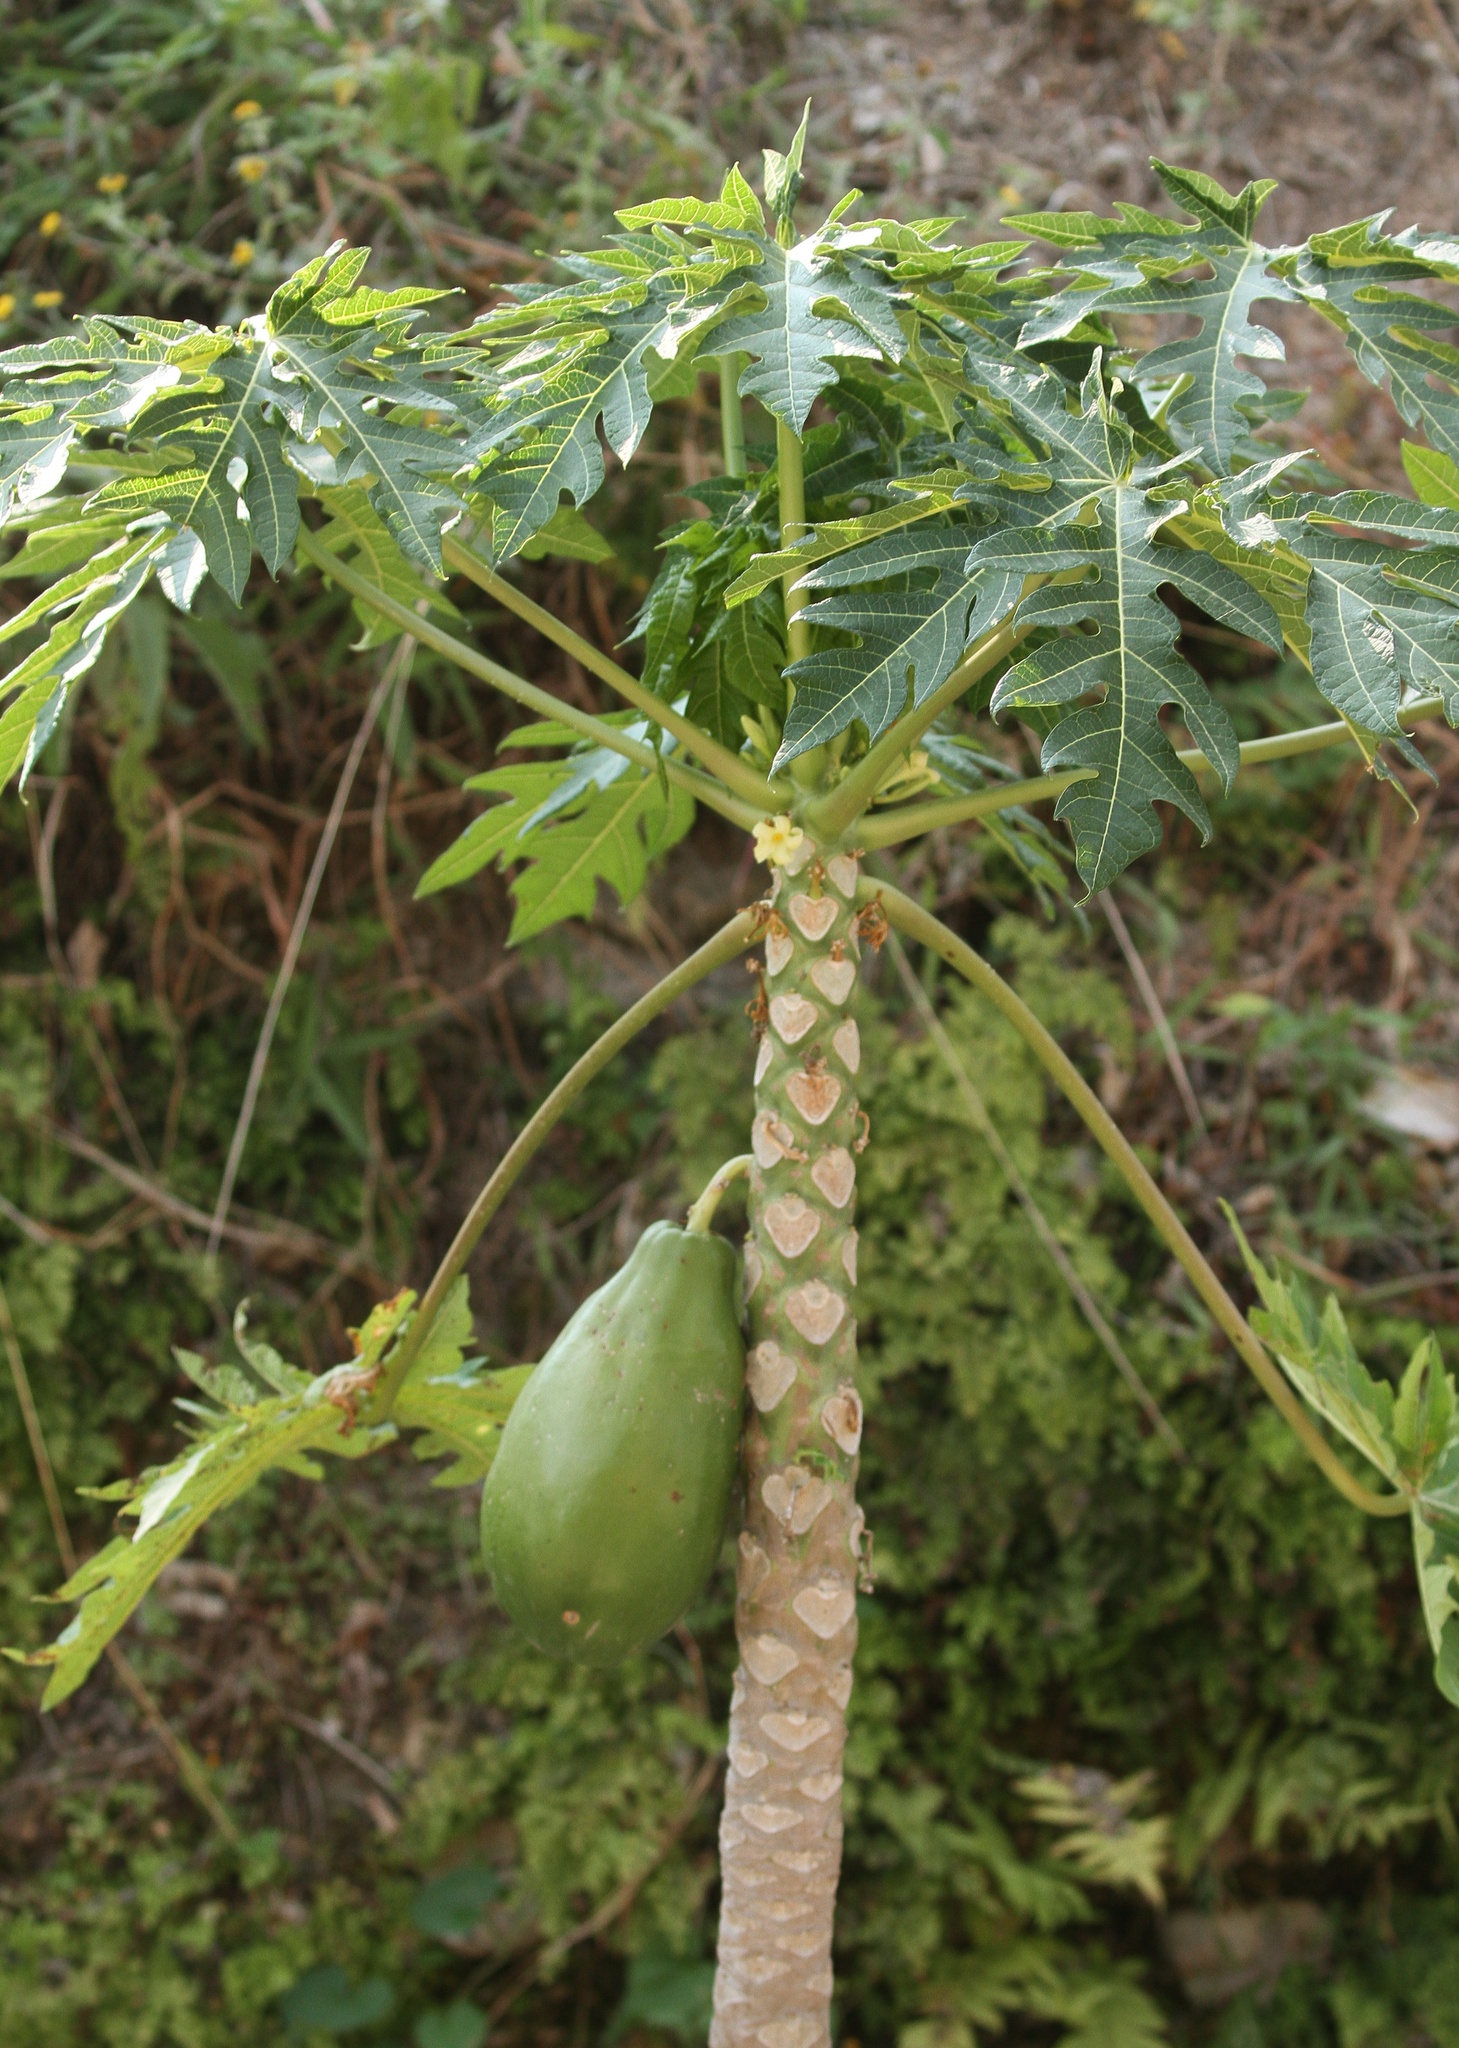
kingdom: Plantae
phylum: Tracheophyta
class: Magnoliopsida
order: Brassicales
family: Caricaceae
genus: Carica
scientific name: Carica papaya
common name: Papaya
